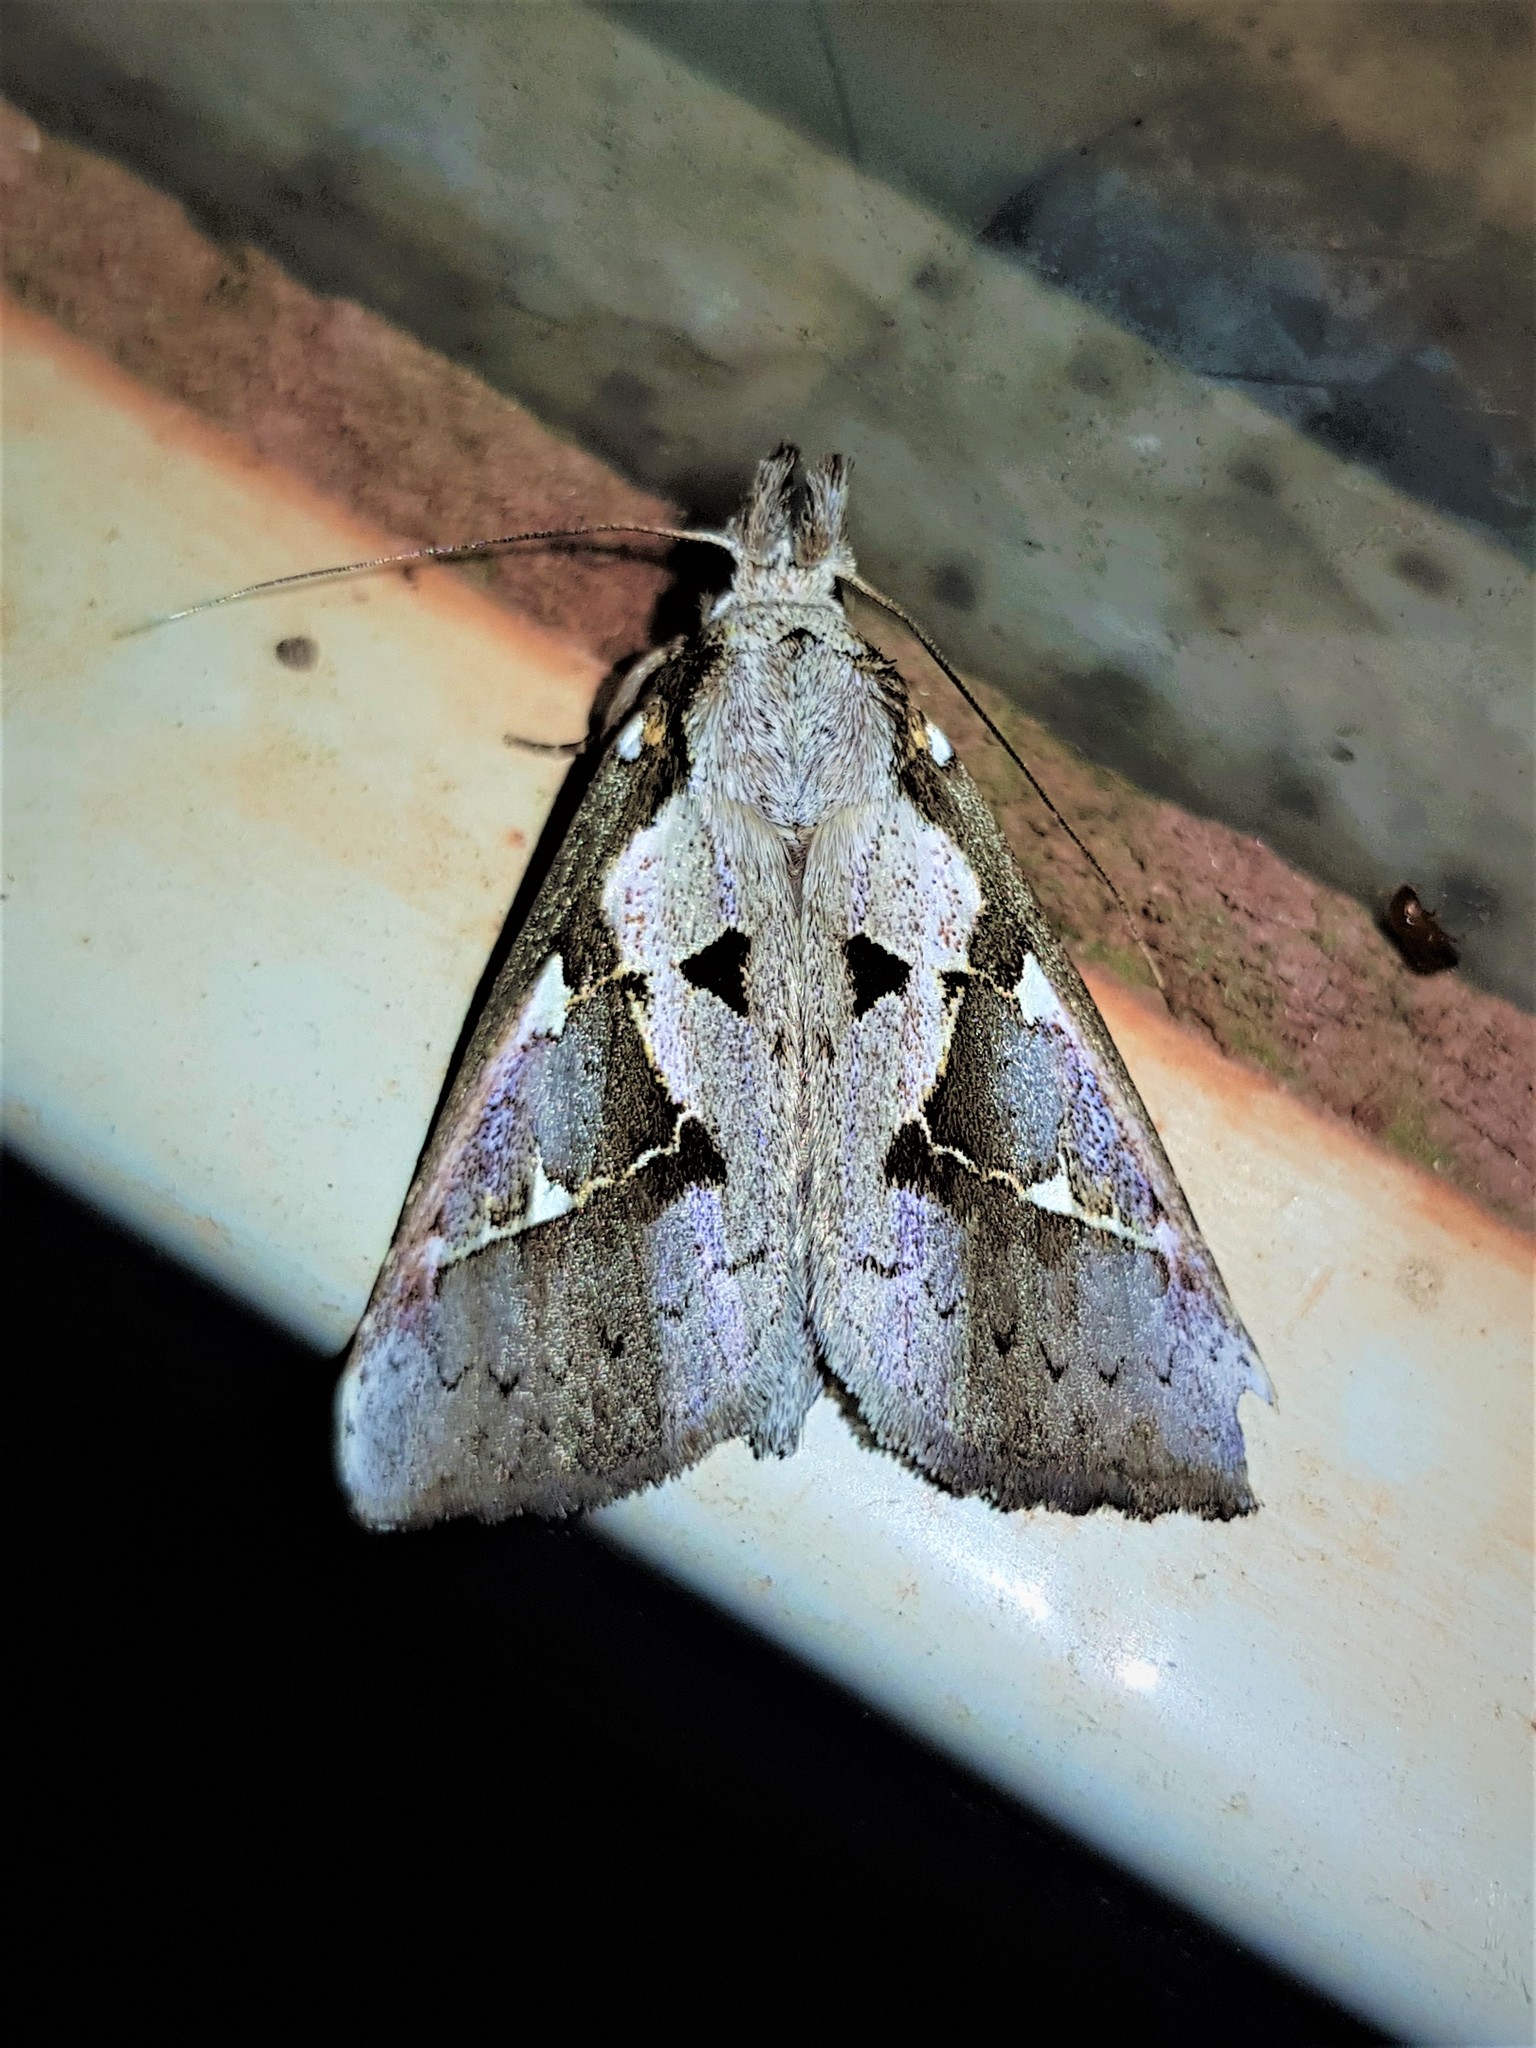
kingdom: Animalia
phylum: Arthropoda
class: Insecta
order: Lepidoptera
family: Notodontidae
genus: Lemairegisa
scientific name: Lemairegisa Lepasta maltha
